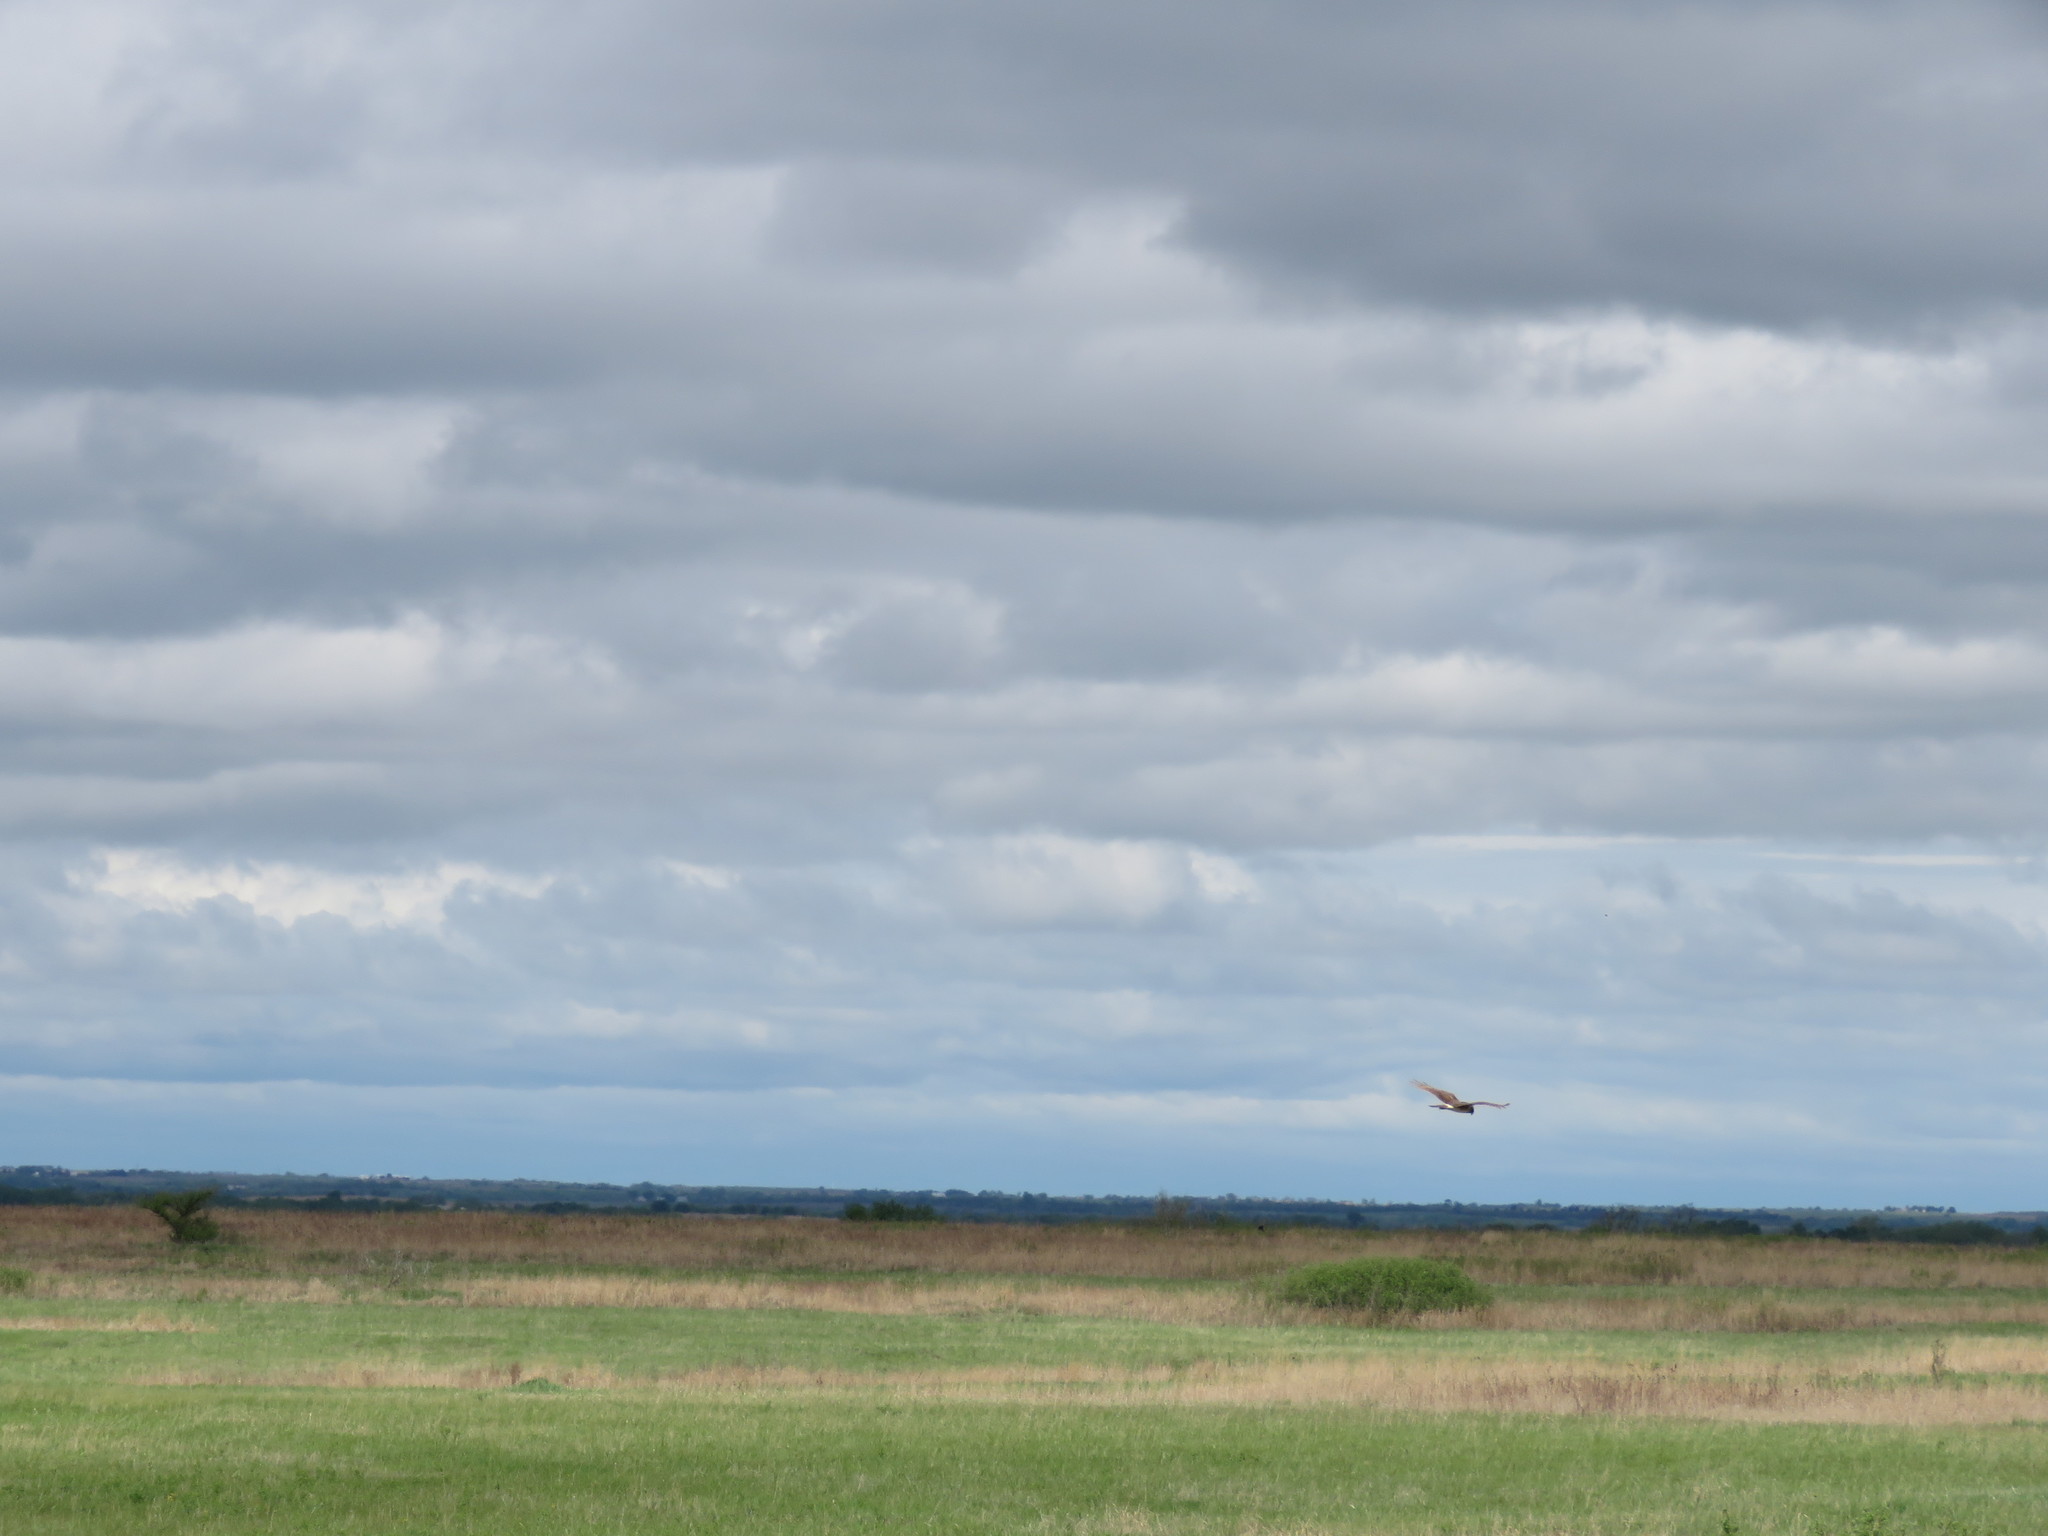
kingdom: Animalia
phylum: Chordata
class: Aves
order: Accipitriformes
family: Accipitridae
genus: Circus
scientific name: Circus cyaneus
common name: Hen harrier
